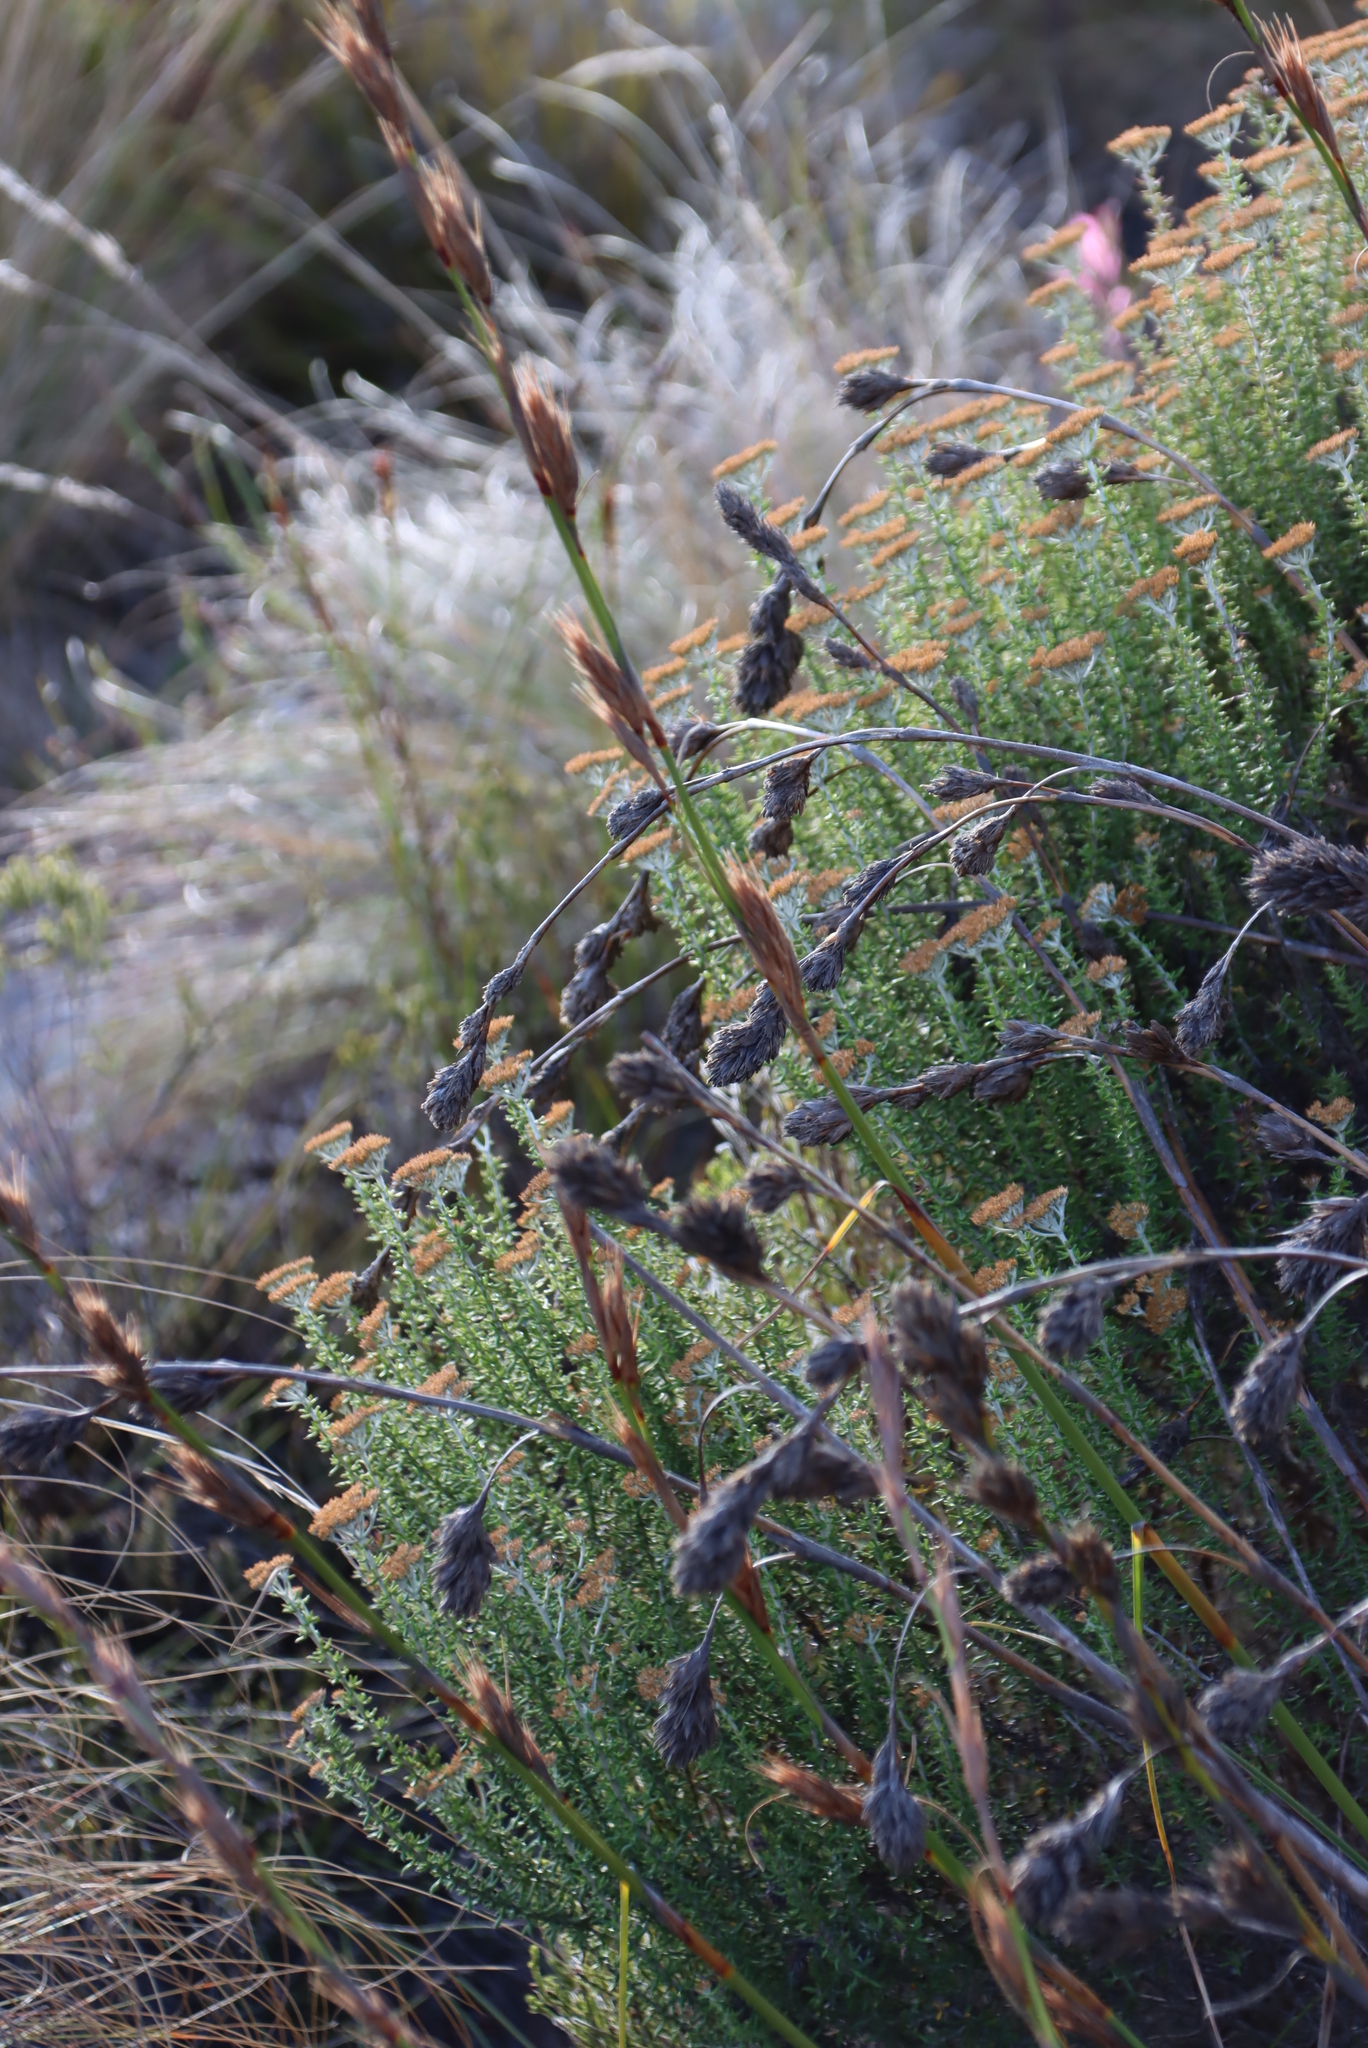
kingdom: Plantae
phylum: Tracheophyta
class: Liliopsida
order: Poales
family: Cyperaceae
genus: Tetraria
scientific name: Tetraria bromoides
